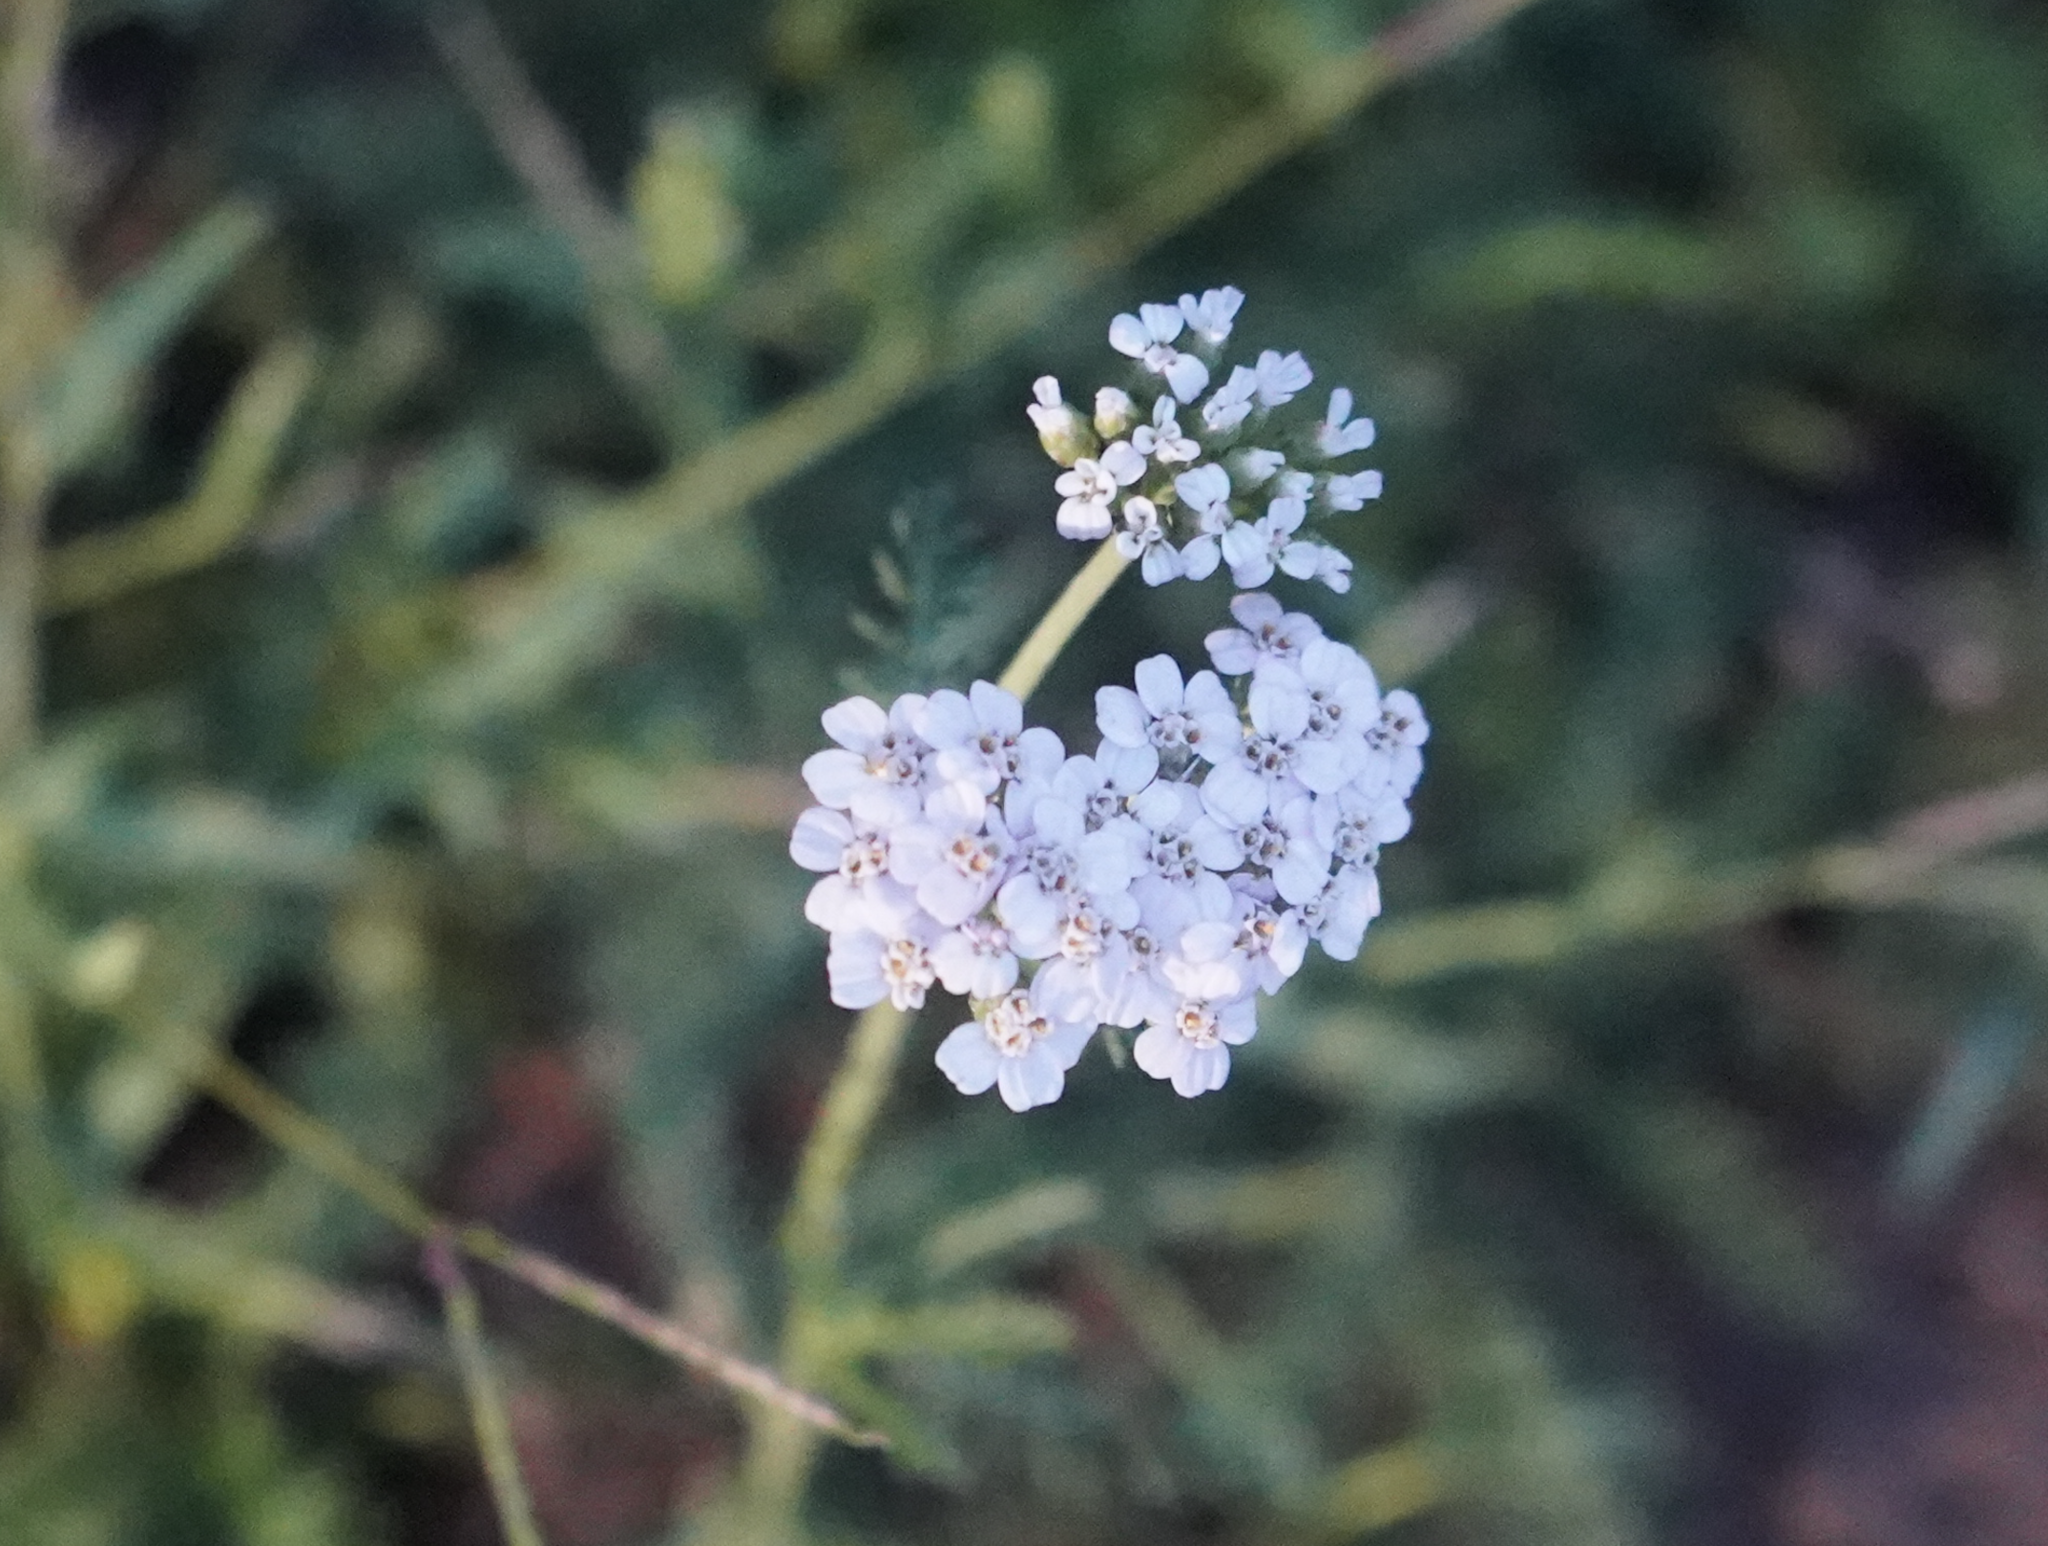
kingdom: Plantae
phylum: Tracheophyta
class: Magnoliopsida
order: Asterales
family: Asteraceae
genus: Achillea
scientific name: Achillea millefolium
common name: Yarrow
